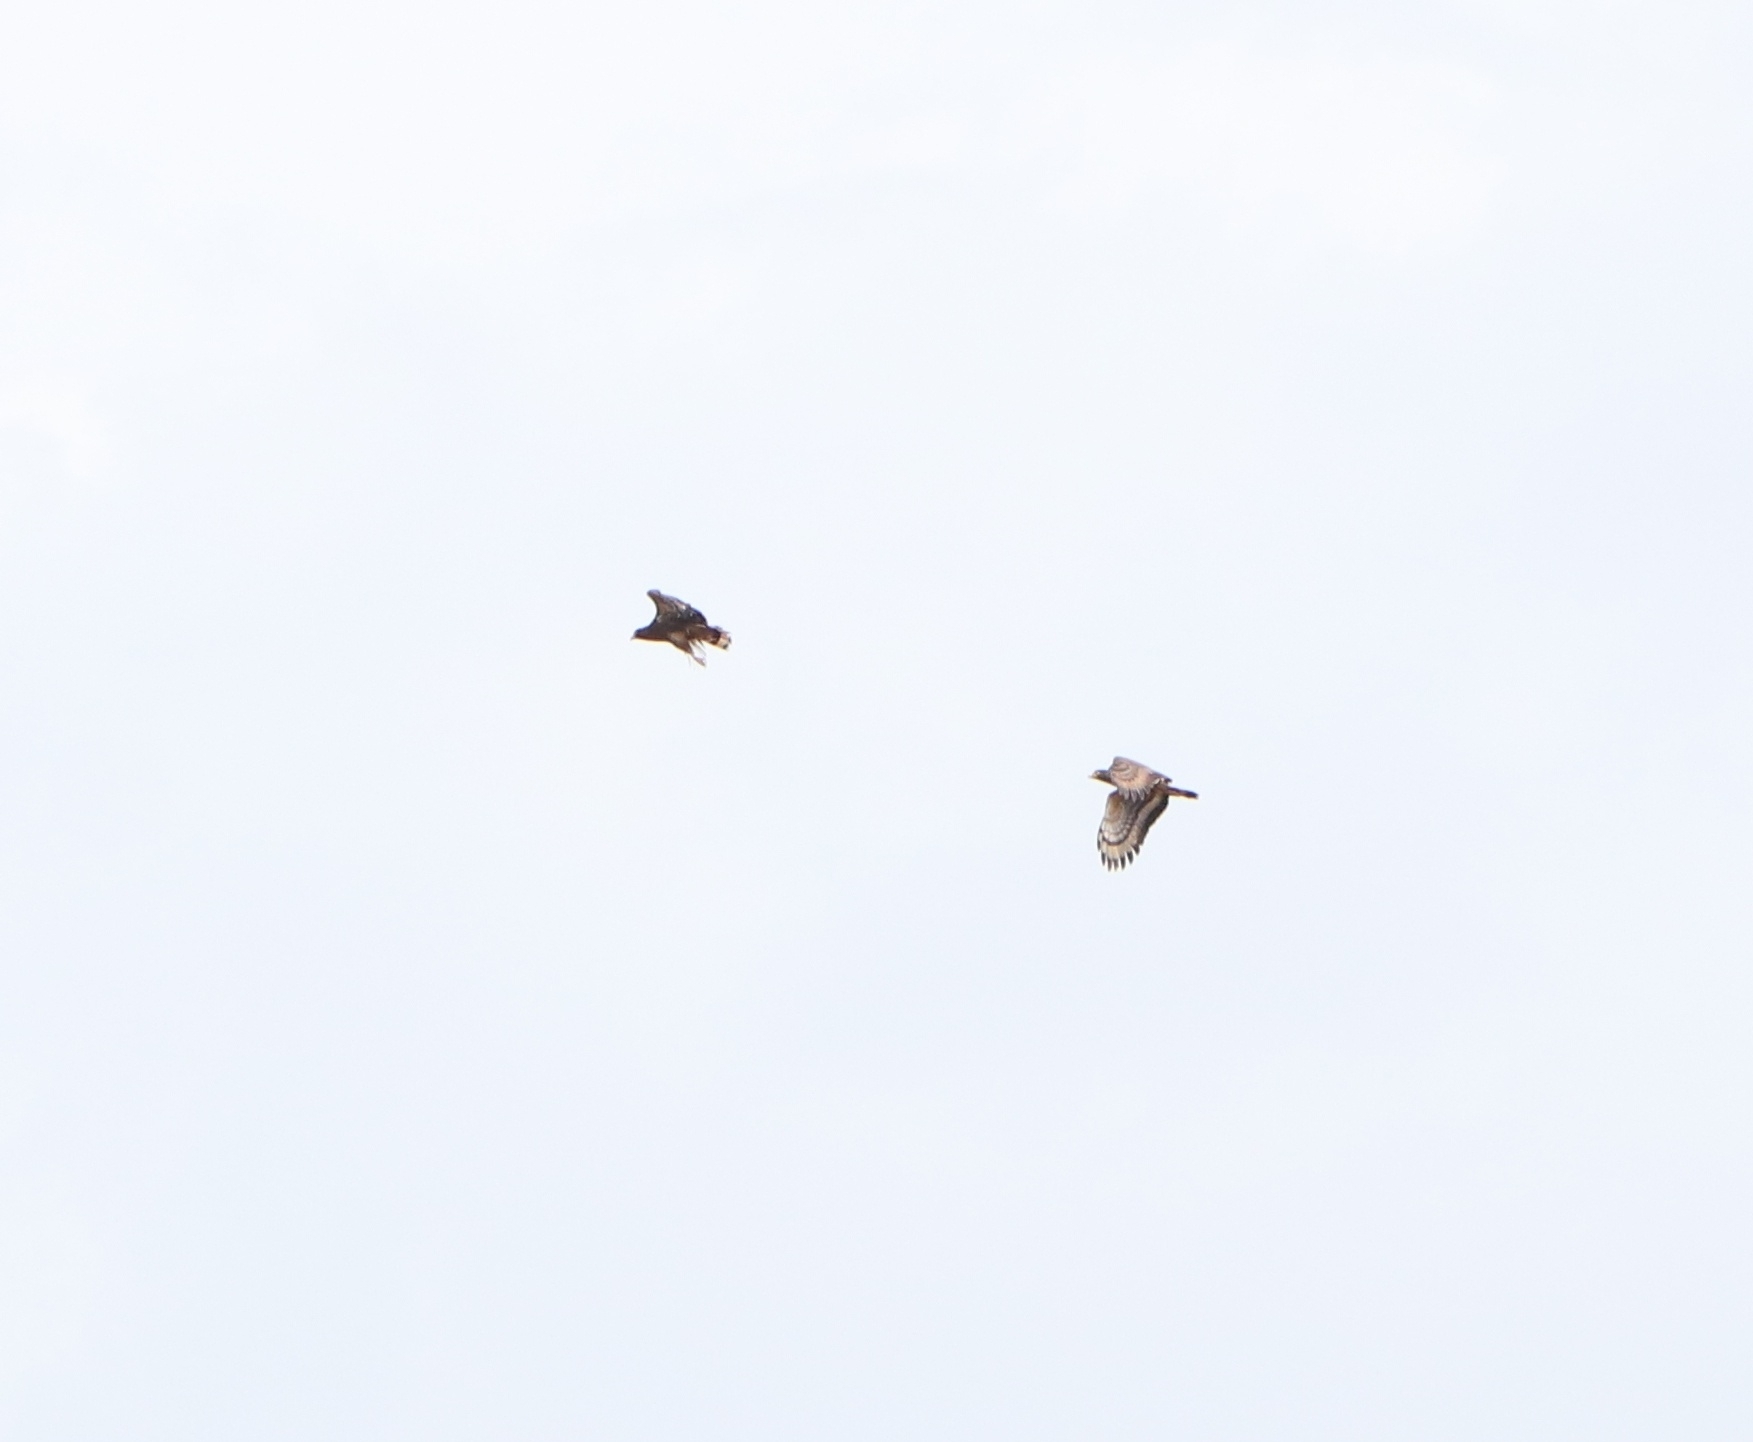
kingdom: Animalia
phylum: Chordata
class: Aves
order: Accipitriformes
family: Accipitridae
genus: Spilornis
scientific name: Spilornis cheela
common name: Crested serpent eagle
